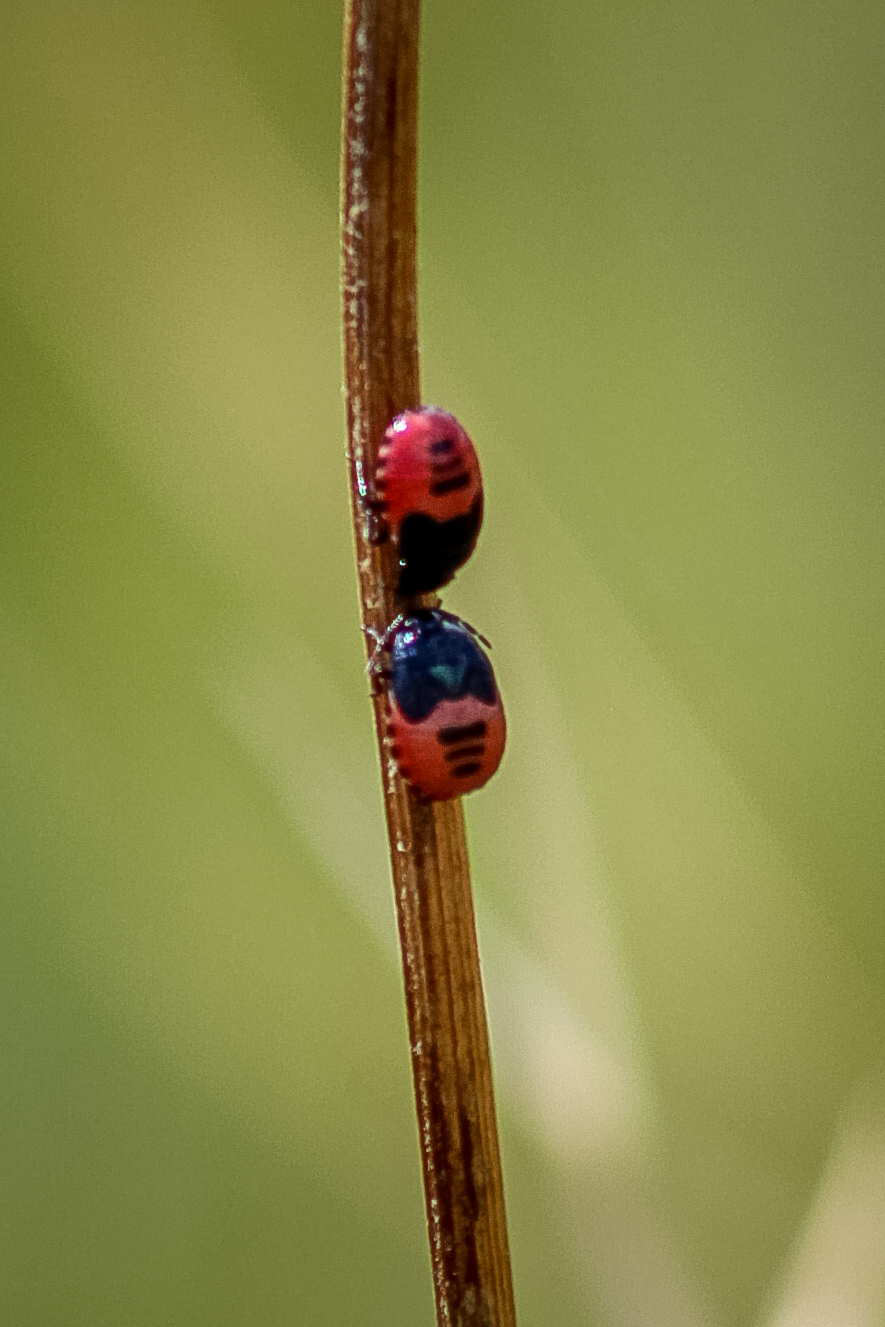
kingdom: Animalia
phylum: Arthropoda
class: Insecta
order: Hemiptera
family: Cydnidae
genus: Canthophorus
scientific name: Canthophorus melanopterus
